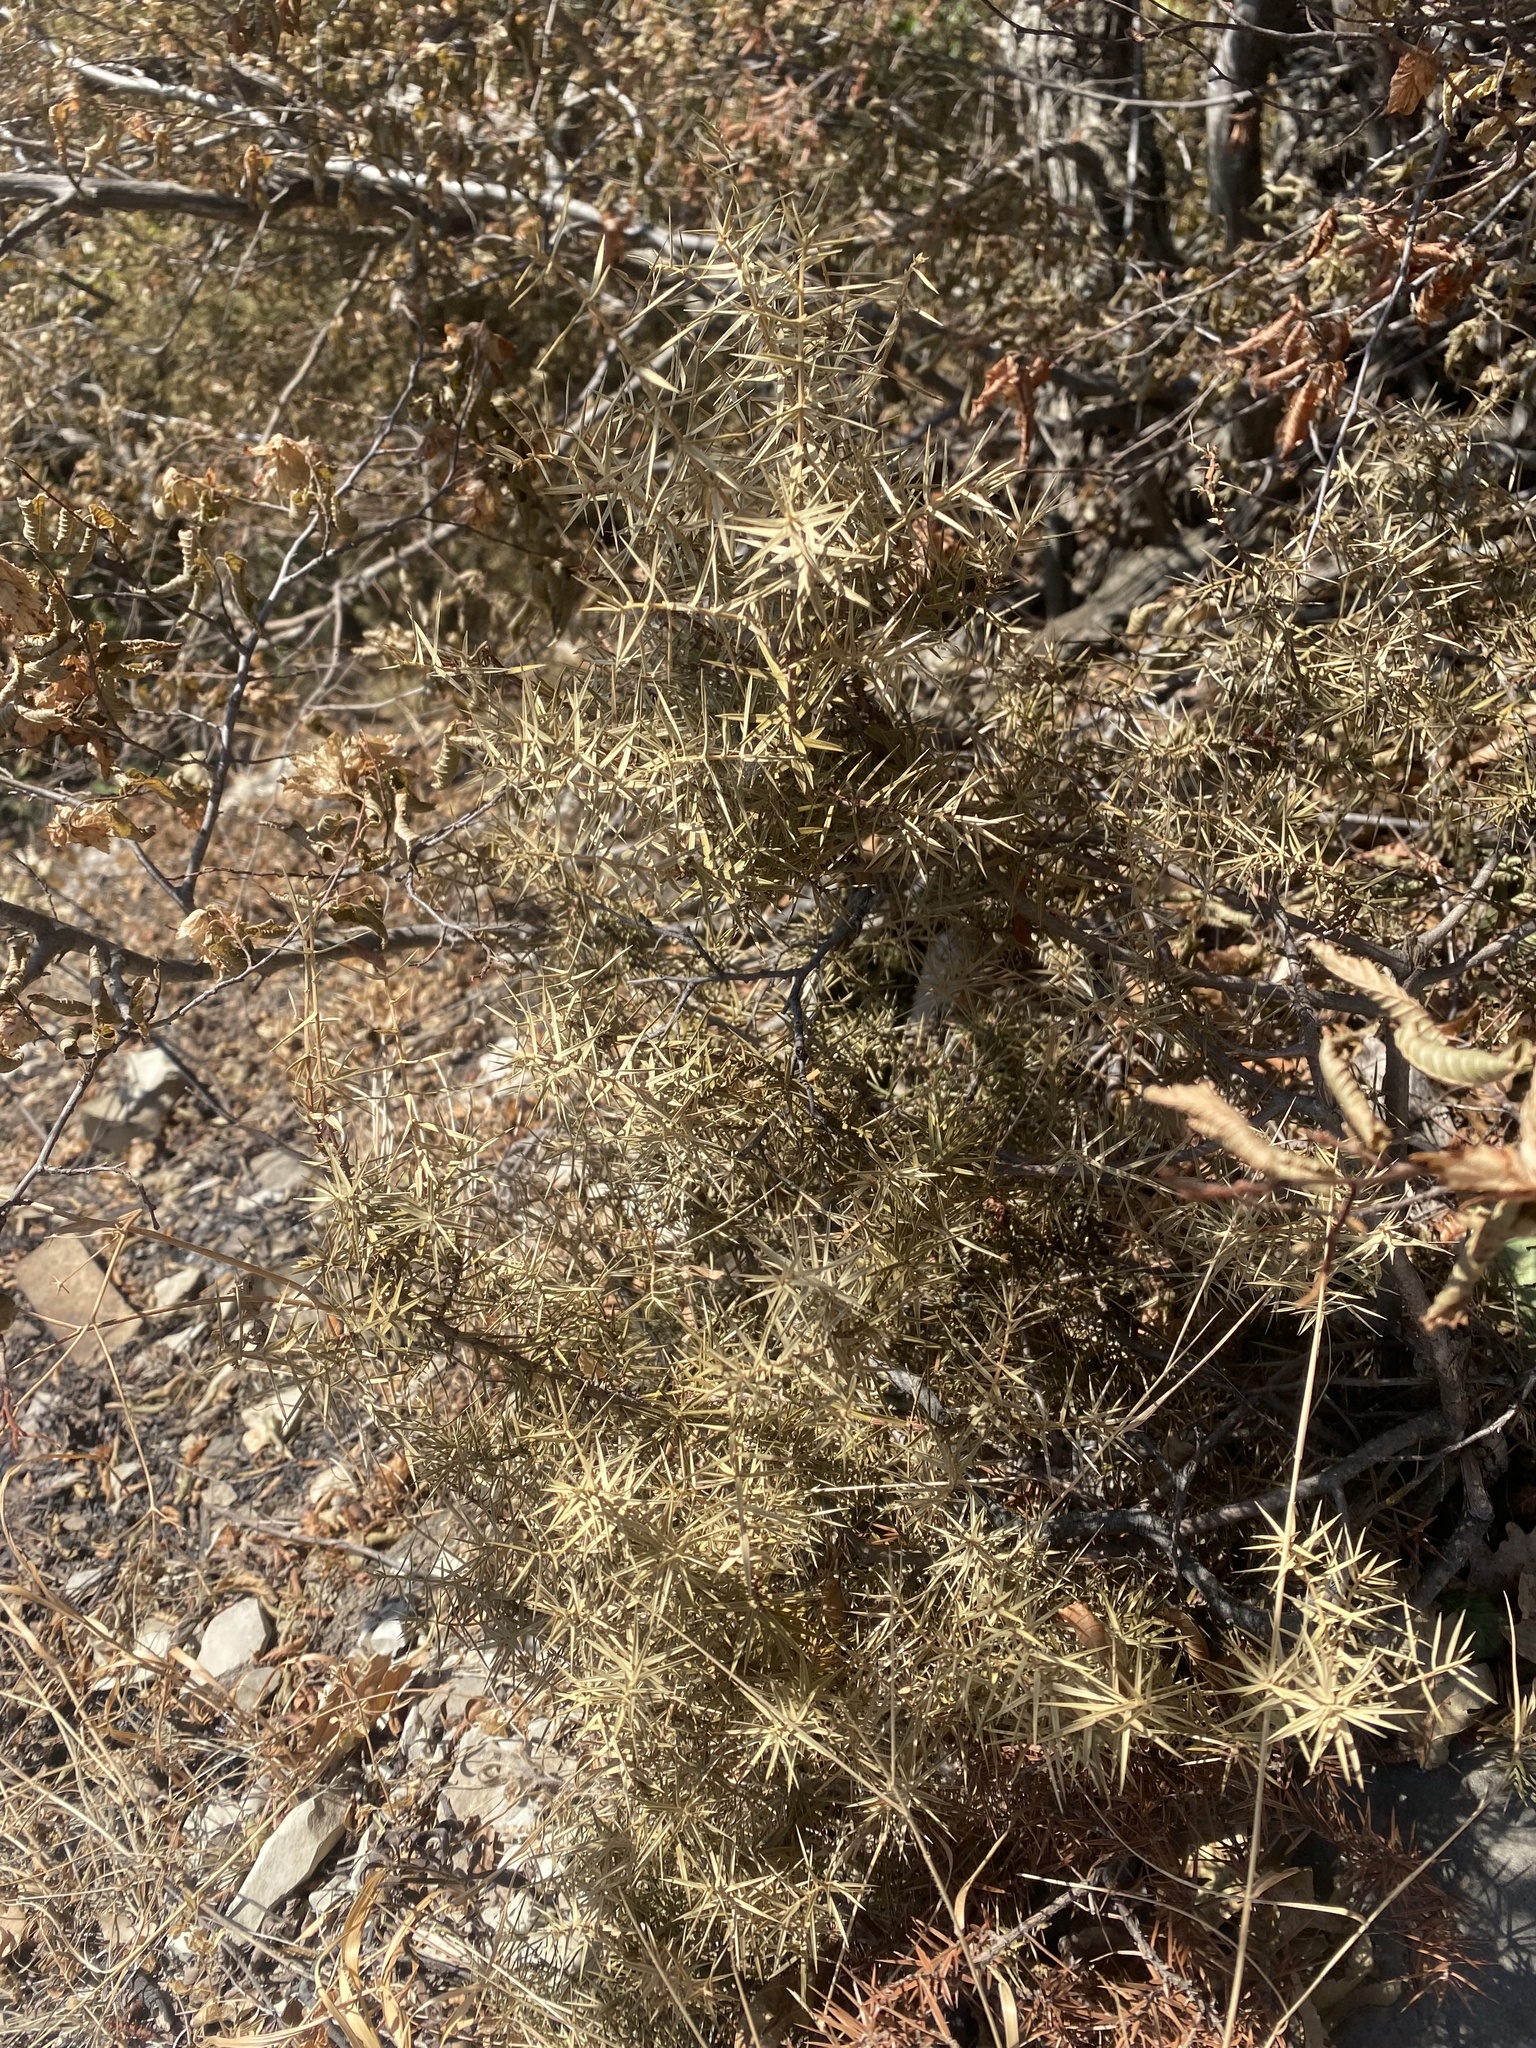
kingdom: Plantae
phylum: Tracheophyta
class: Pinopsida
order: Pinales
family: Cupressaceae
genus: Juniperus
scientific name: Juniperus oxycedrus
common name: Prickly juniper
